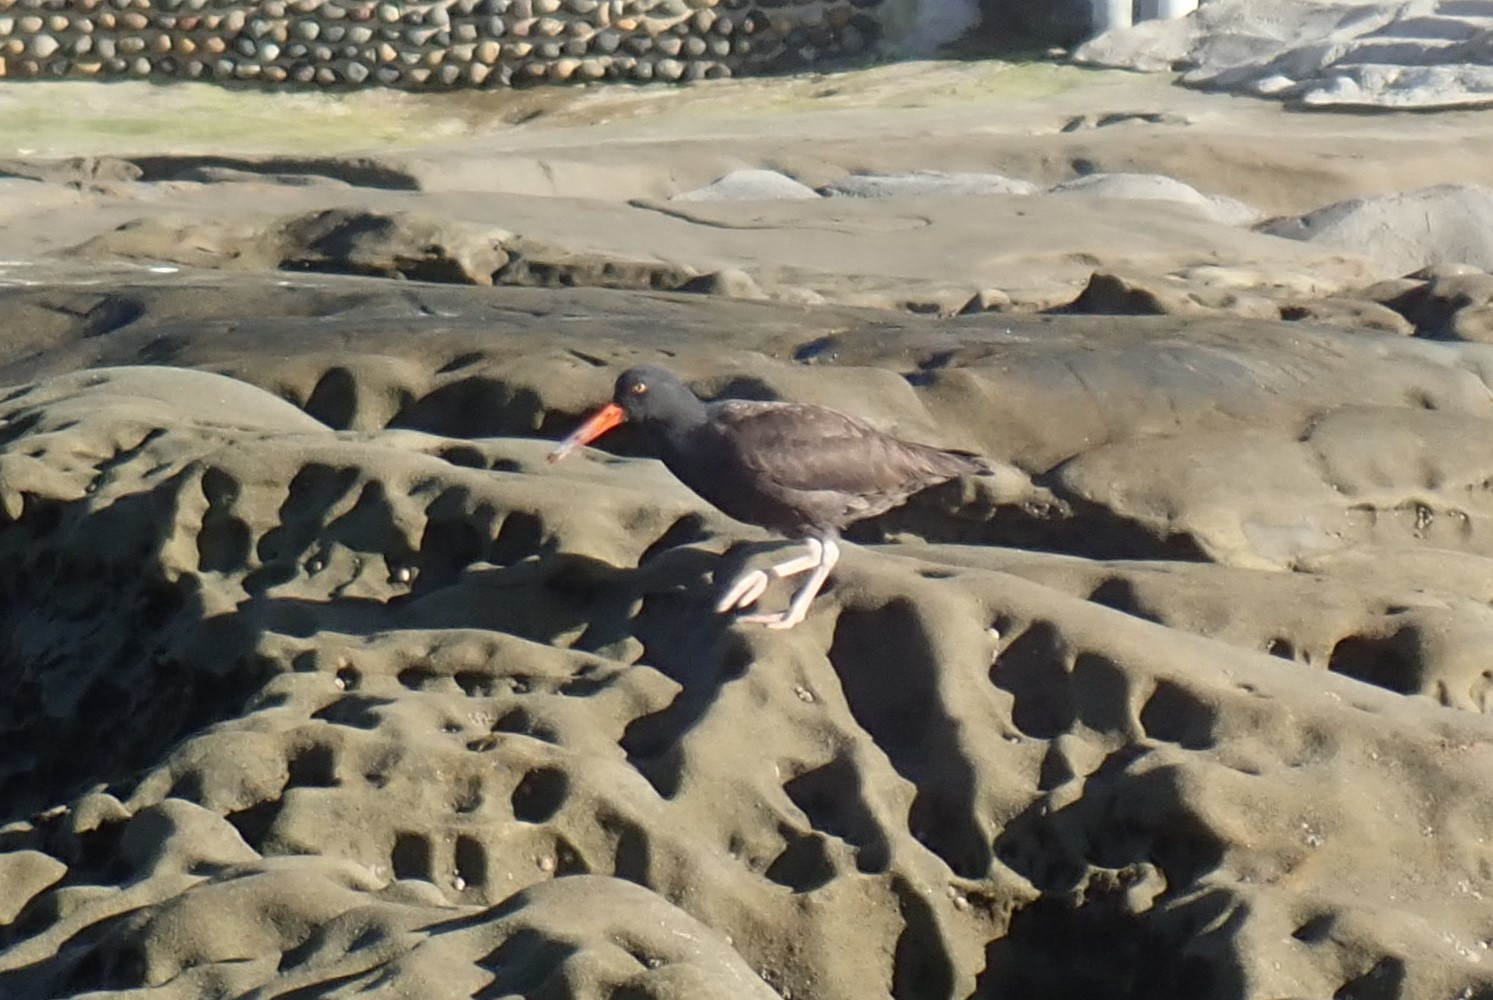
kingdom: Animalia
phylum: Chordata
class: Aves
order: Charadriiformes
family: Haematopodidae
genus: Haematopus
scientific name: Haematopus bachmani
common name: Black oystercatcher
